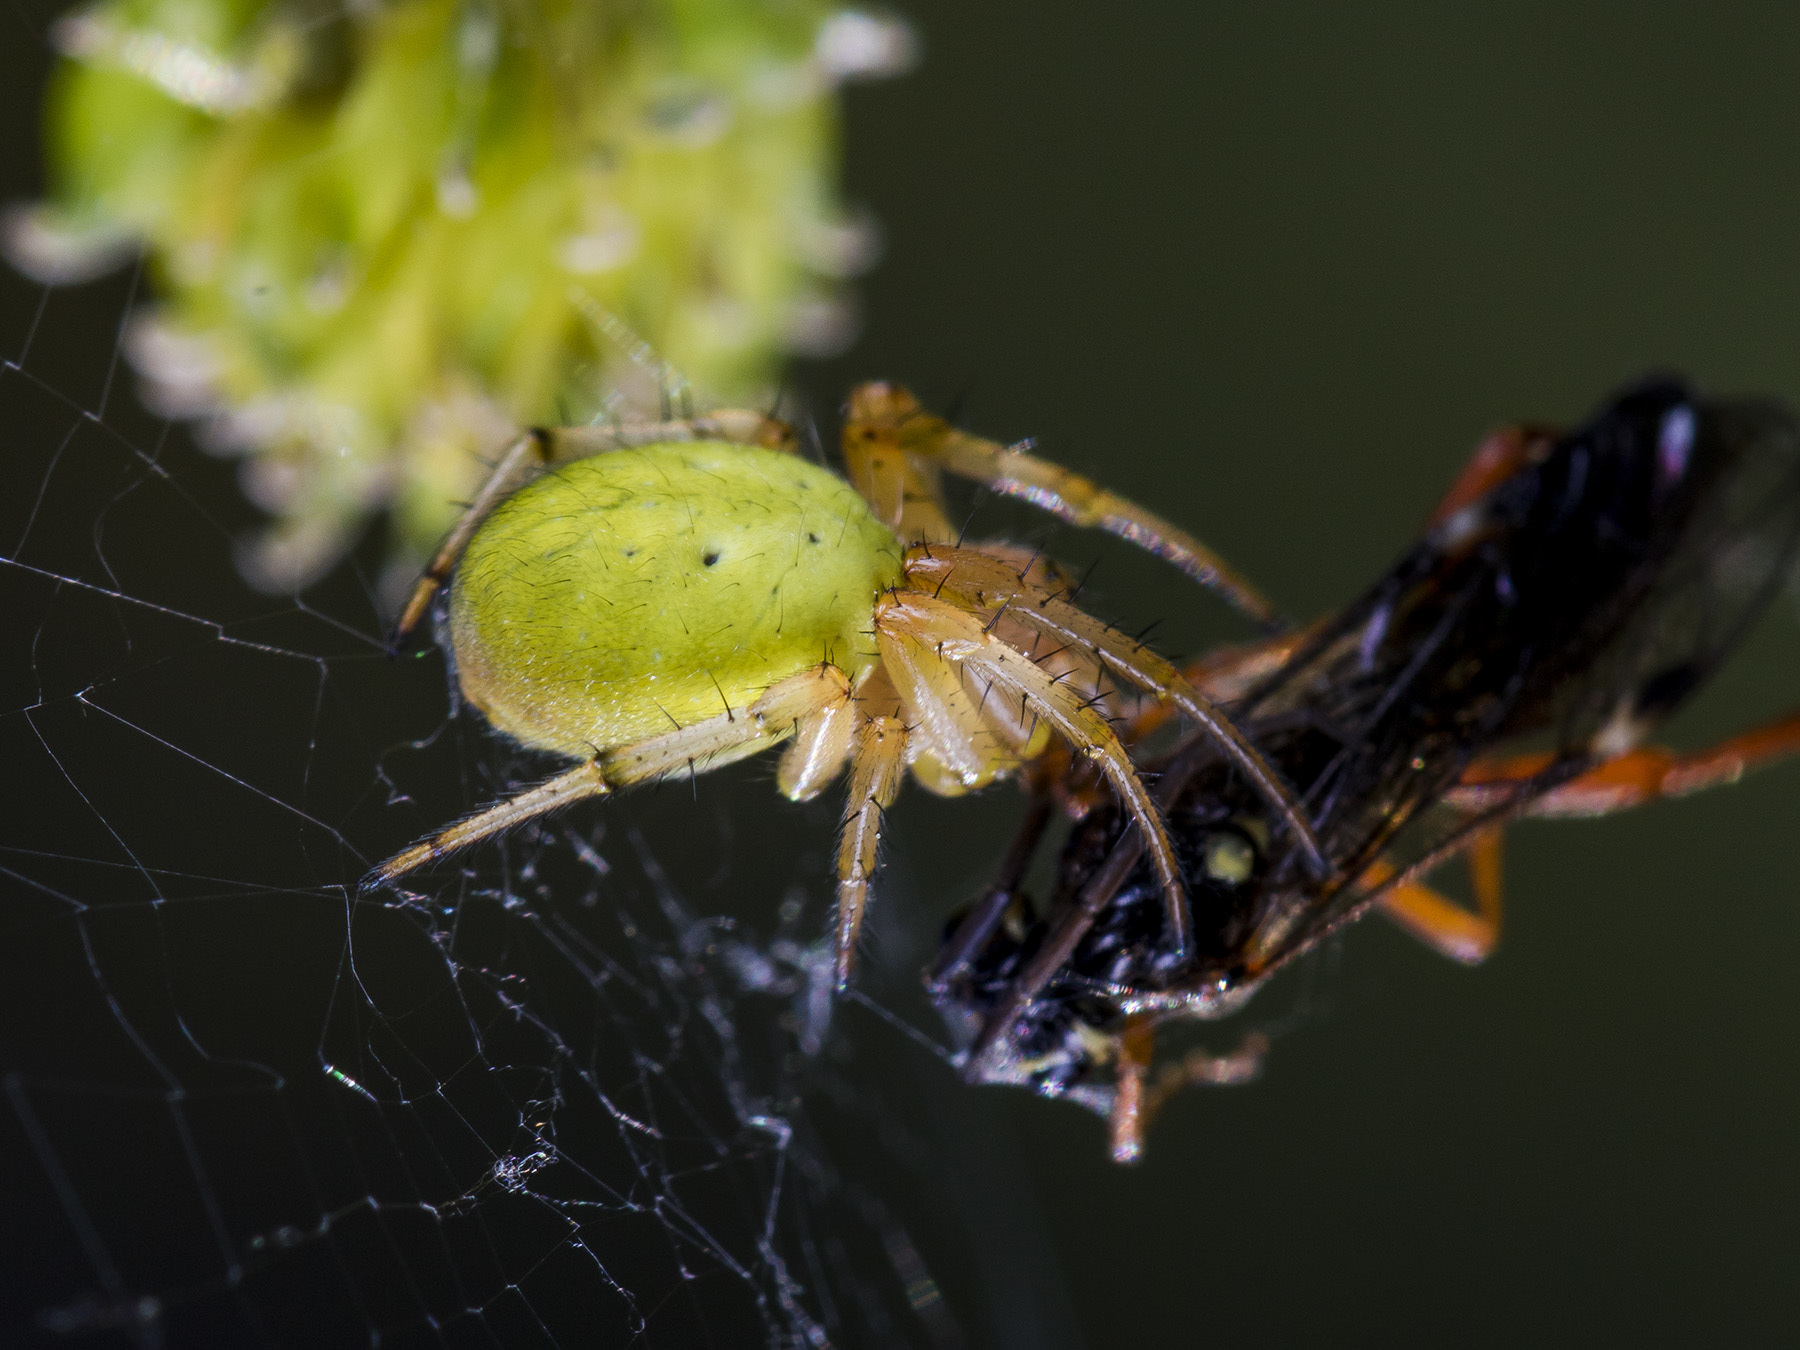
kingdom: Animalia
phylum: Arthropoda
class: Arachnida
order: Araneae
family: Araneidae
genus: Araniella
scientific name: Araniella displicata
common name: Sixspotted orb weaver
